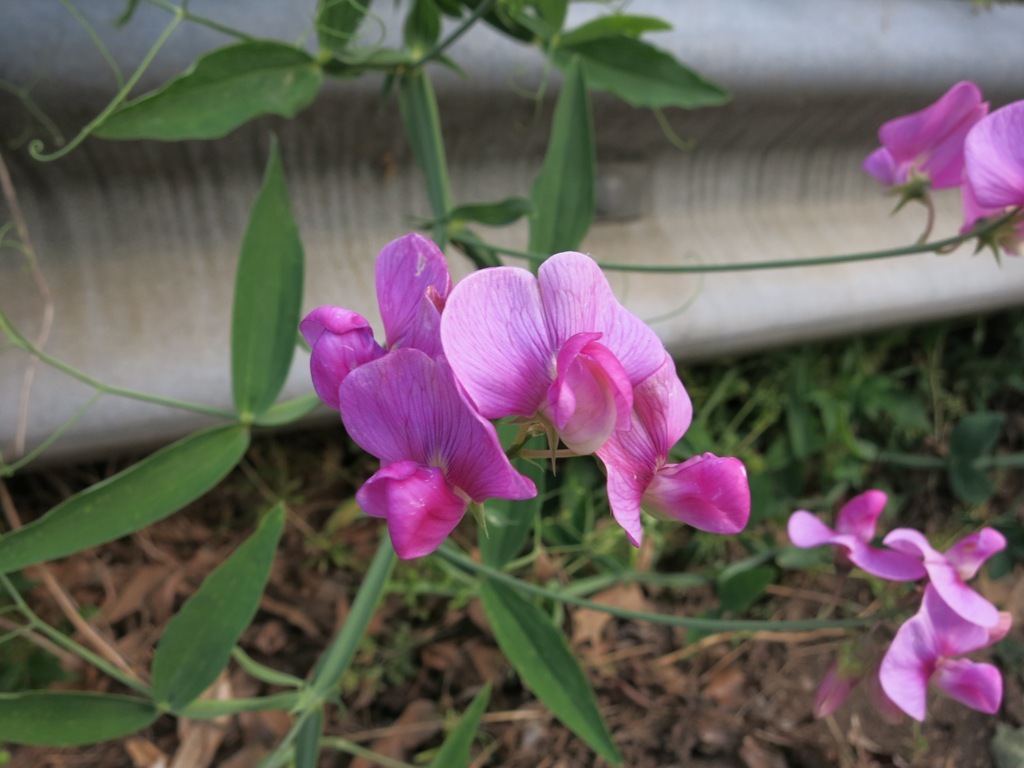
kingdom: Plantae
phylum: Tracheophyta
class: Magnoliopsida
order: Fabales
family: Fabaceae
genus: Lathyrus
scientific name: Lathyrus latifolius
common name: Perennial pea
